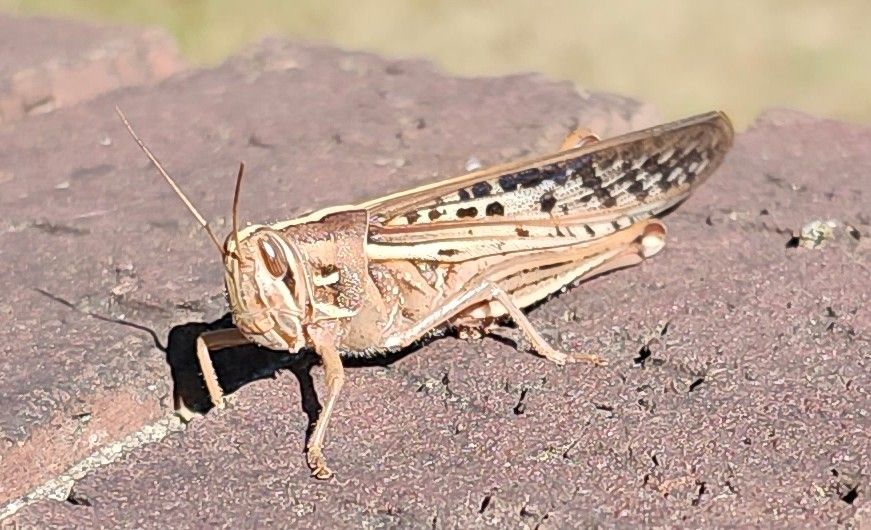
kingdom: Animalia
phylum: Arthropoda
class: Insecta
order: Orthoptera
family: Acrididae
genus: Schistocerca
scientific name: Schistocerca americana
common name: American bird locust
